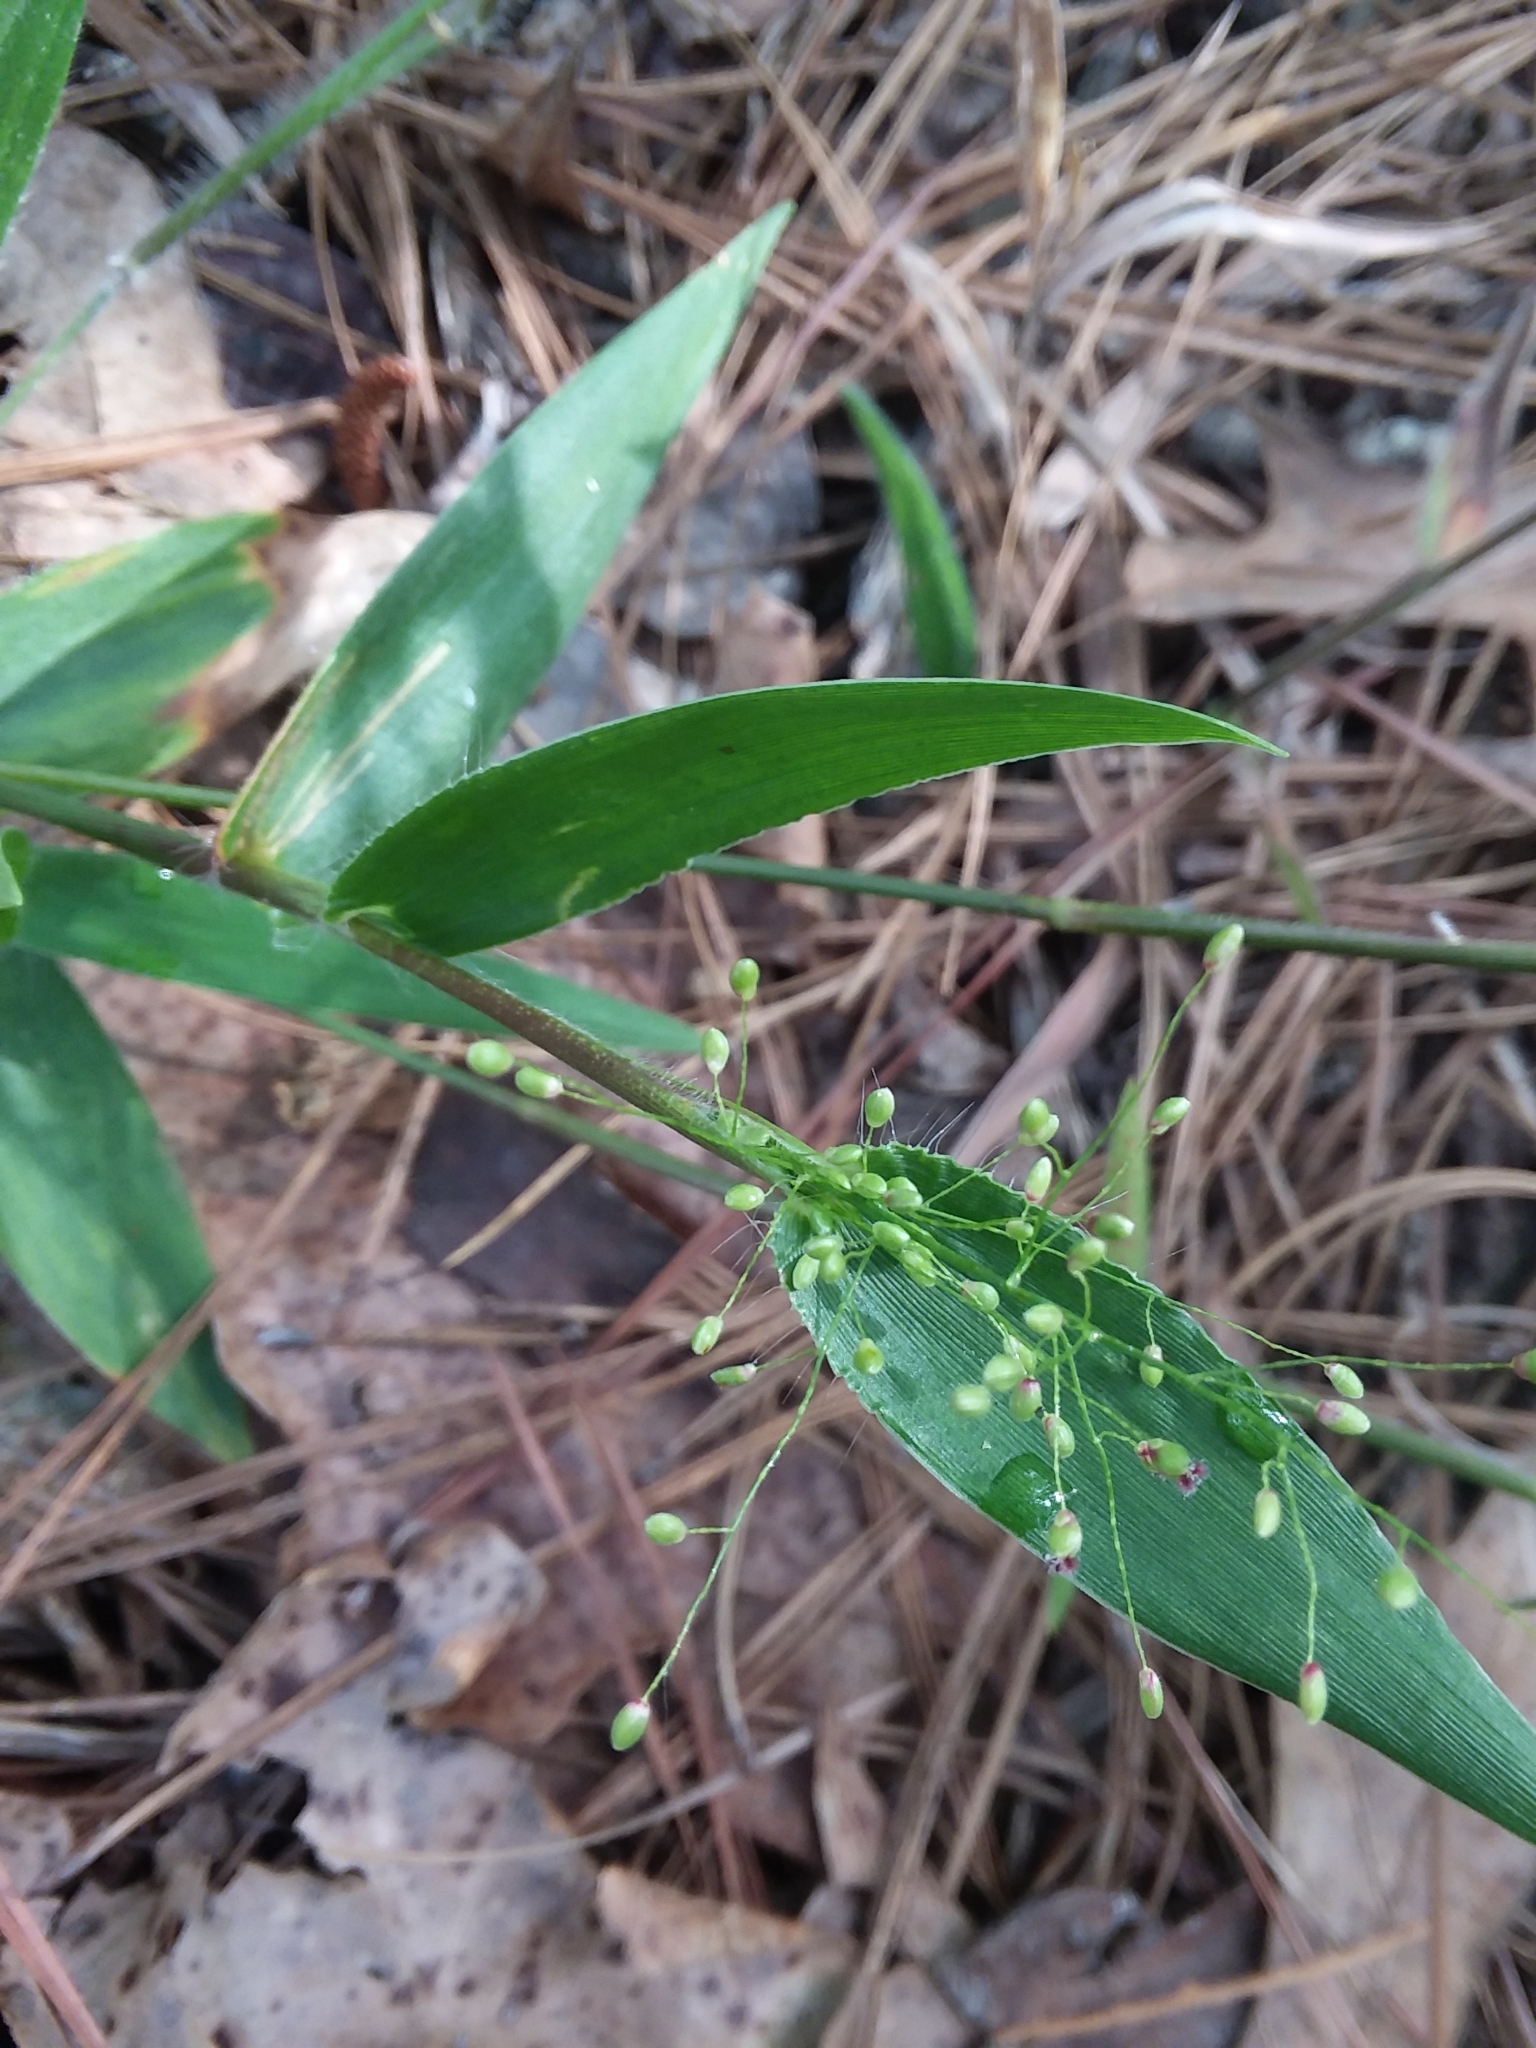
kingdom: Plantae
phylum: Tracheophyta
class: Liliopsida
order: Poales
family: Poaceae
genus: Dichanthelium
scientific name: Dichanthelium sphaerocarpon
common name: Round-fruited panicgrass
